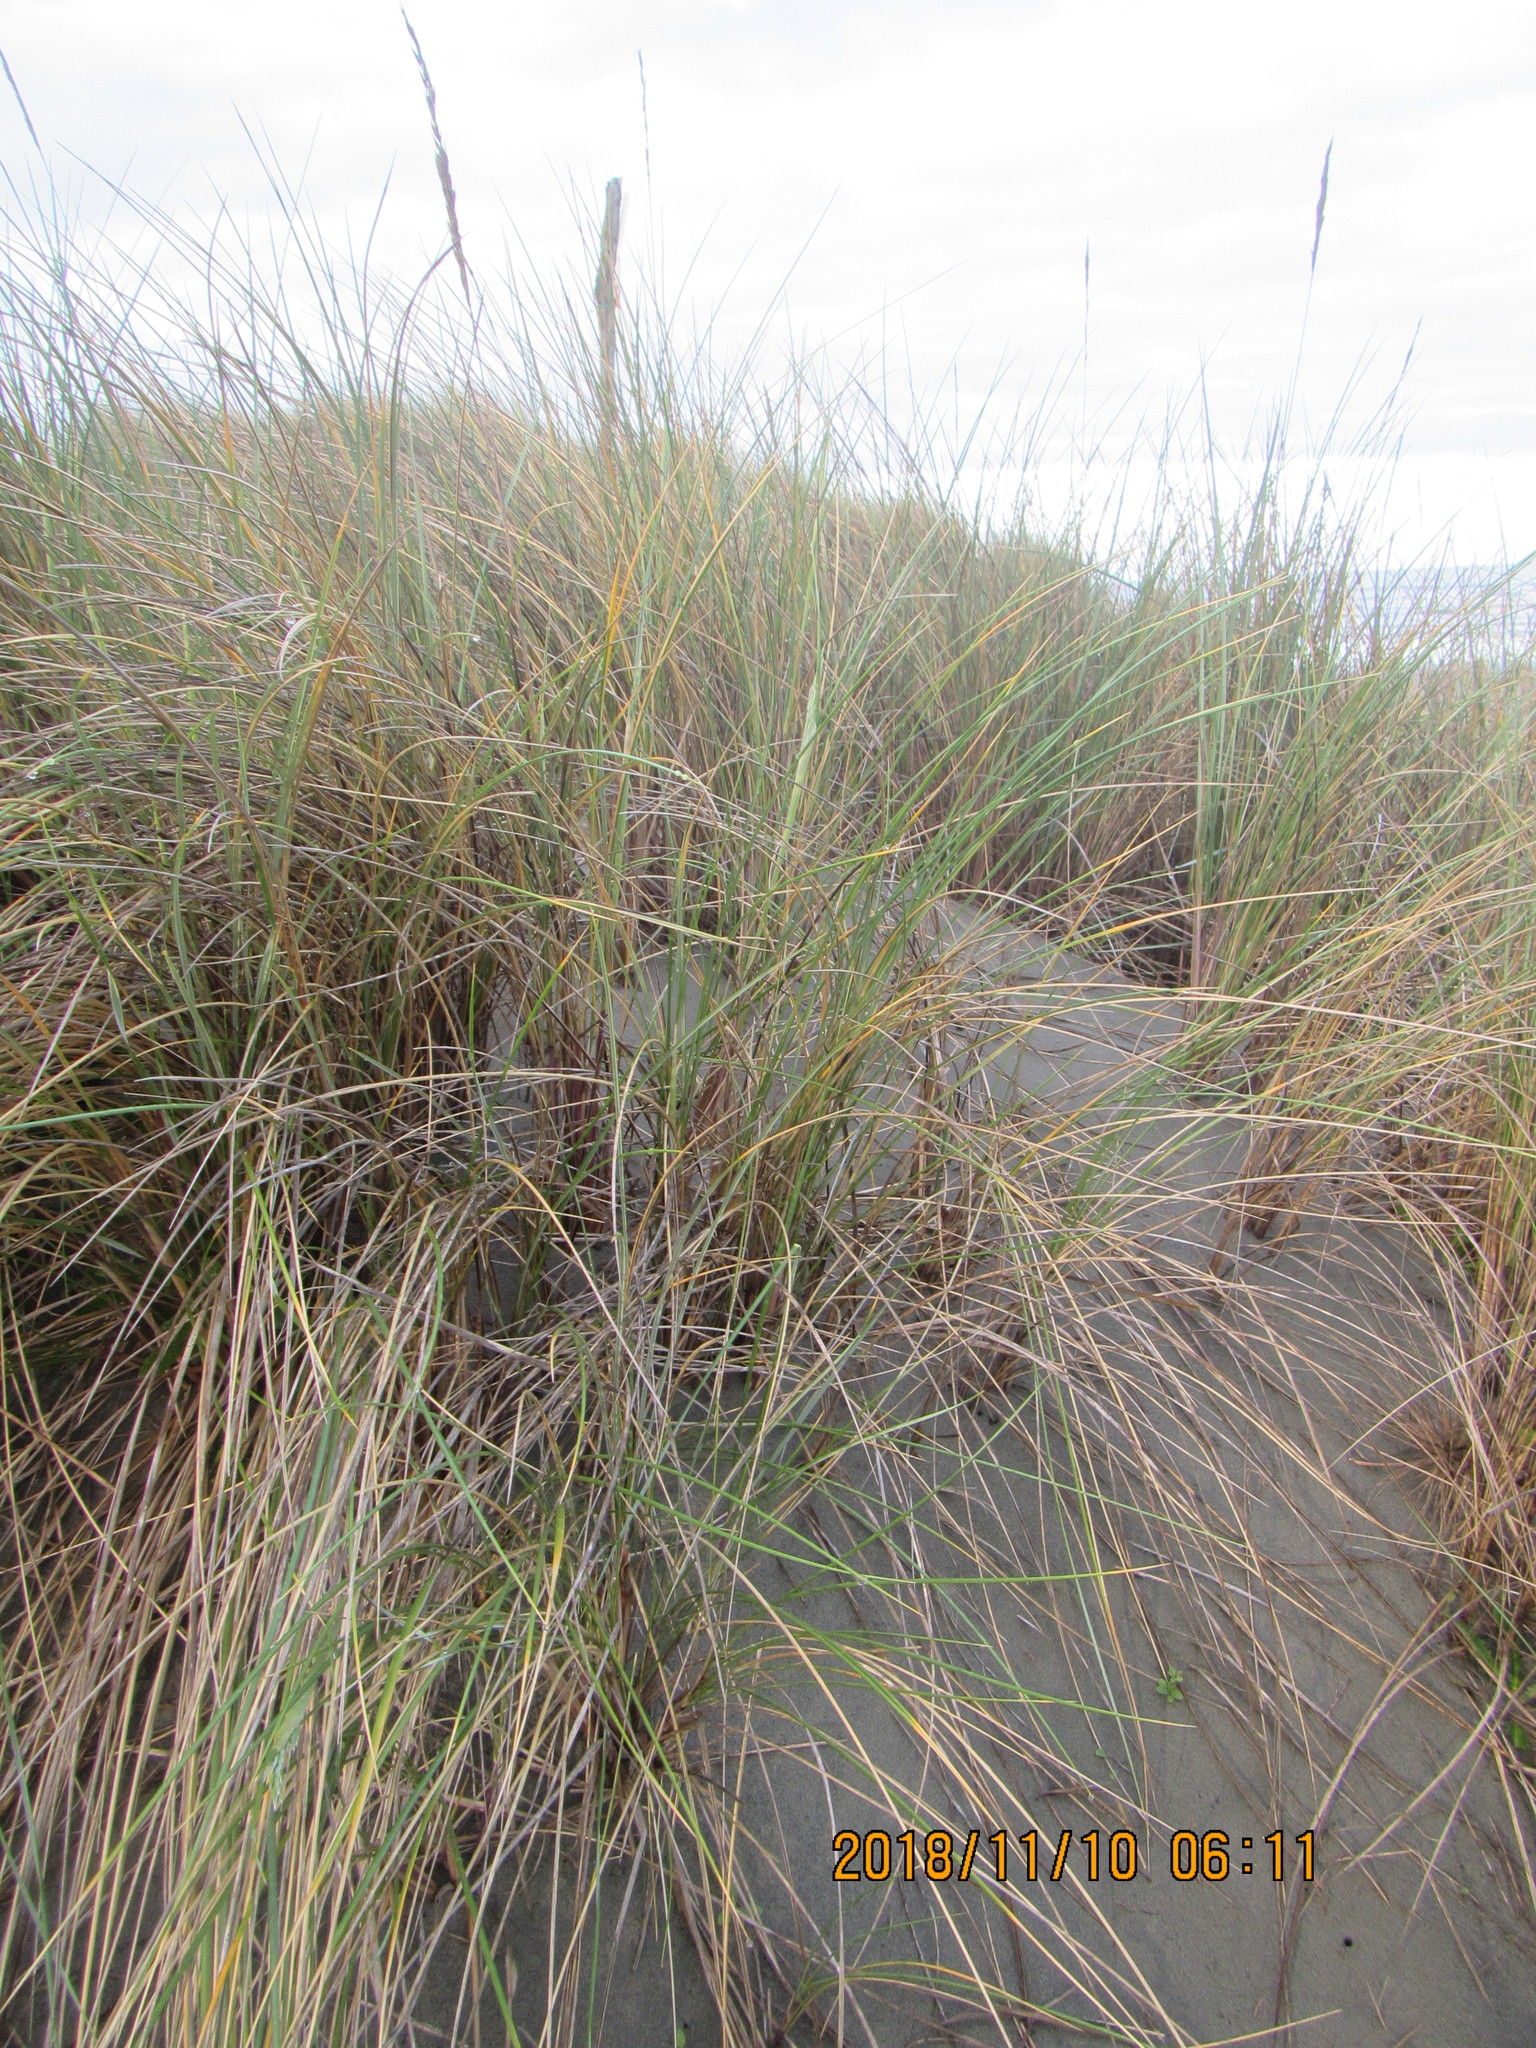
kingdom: Plantae
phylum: Tracheophyta
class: Liliopsida
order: Poales
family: Poaceae
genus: Calamagrostis
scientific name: Calamagrostis arenaria
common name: European beachgrass
